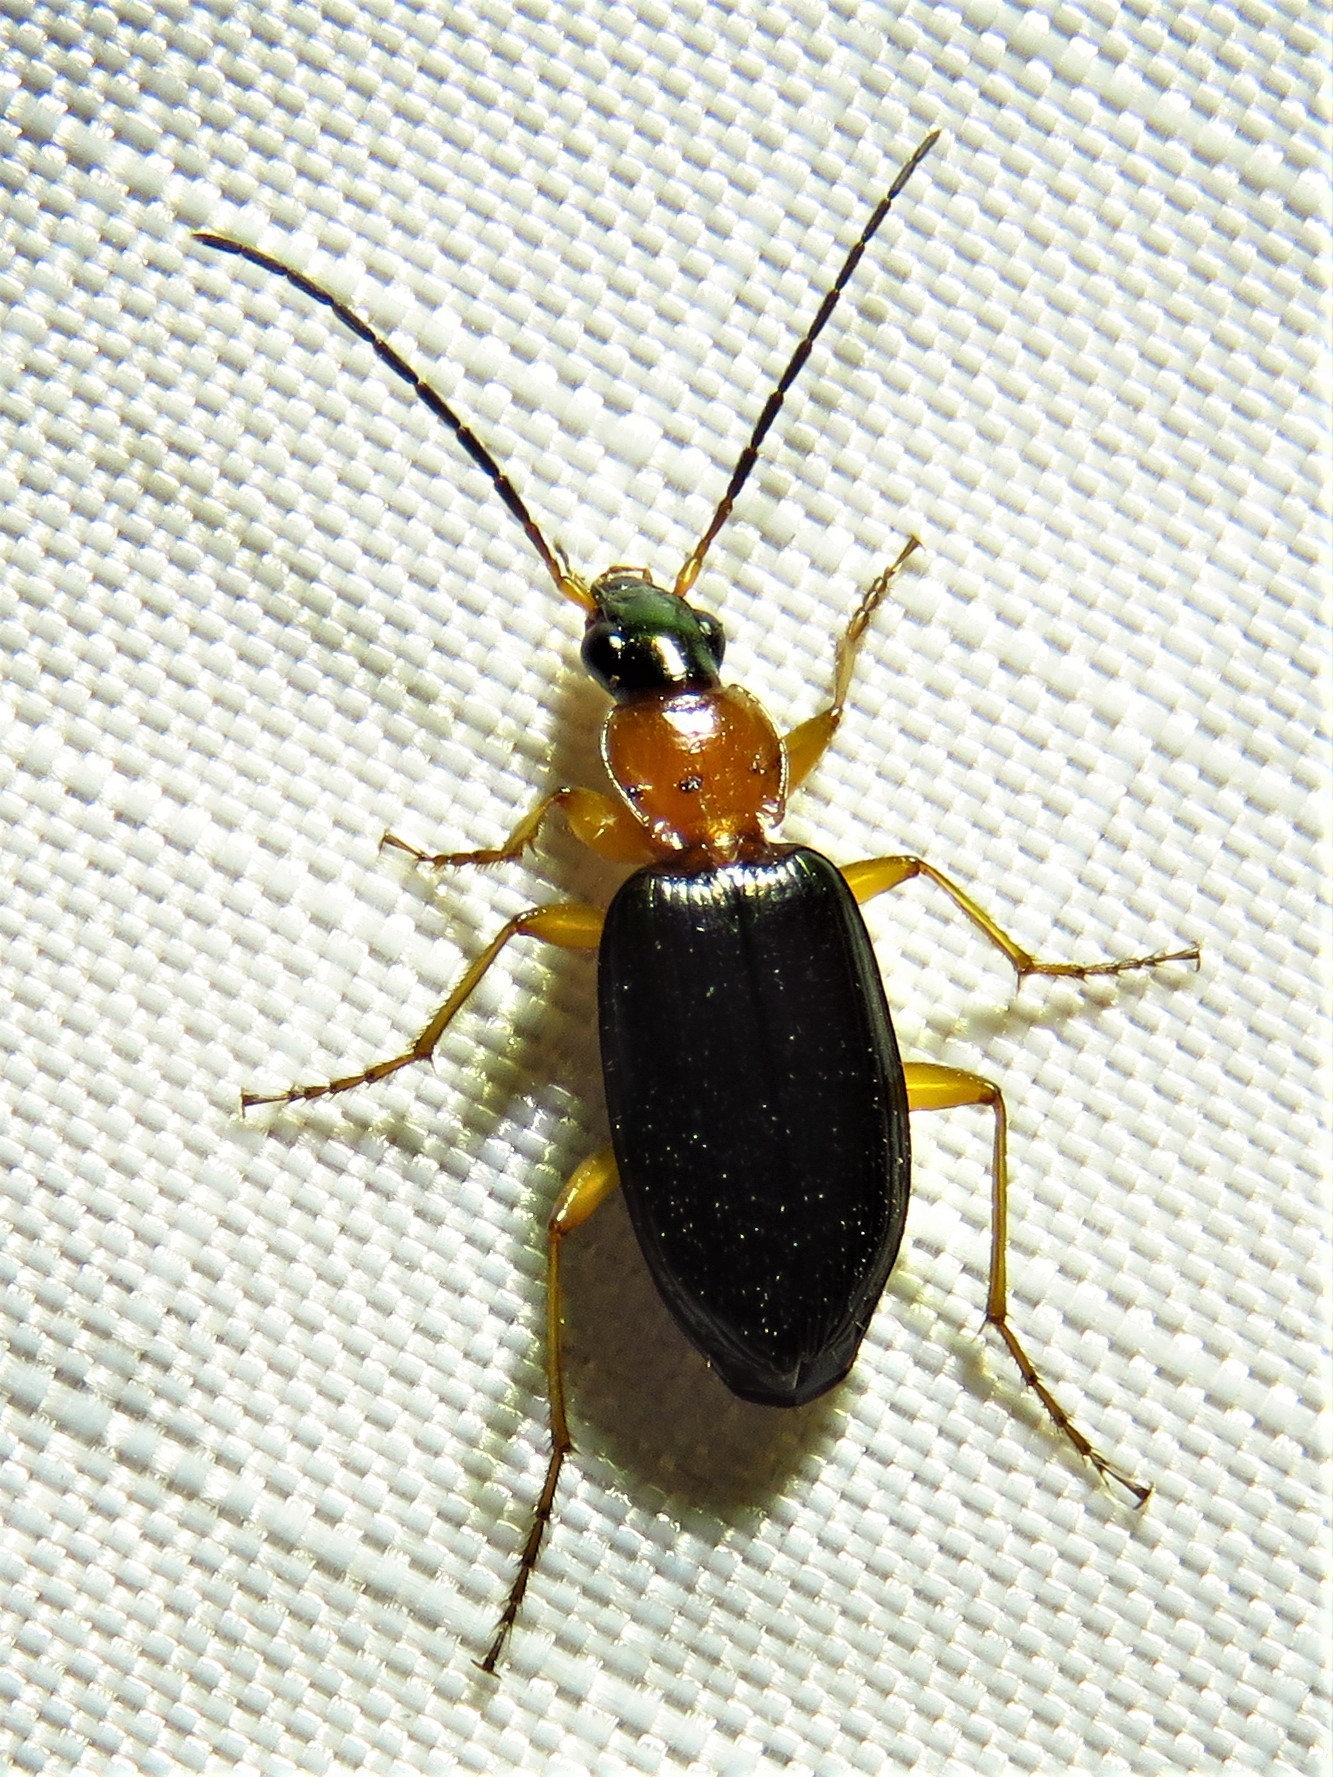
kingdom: Animalia
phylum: Arthropoda
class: Insecta
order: Coleoptera
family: Carabidae
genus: Agonum
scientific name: Agonum decorum
